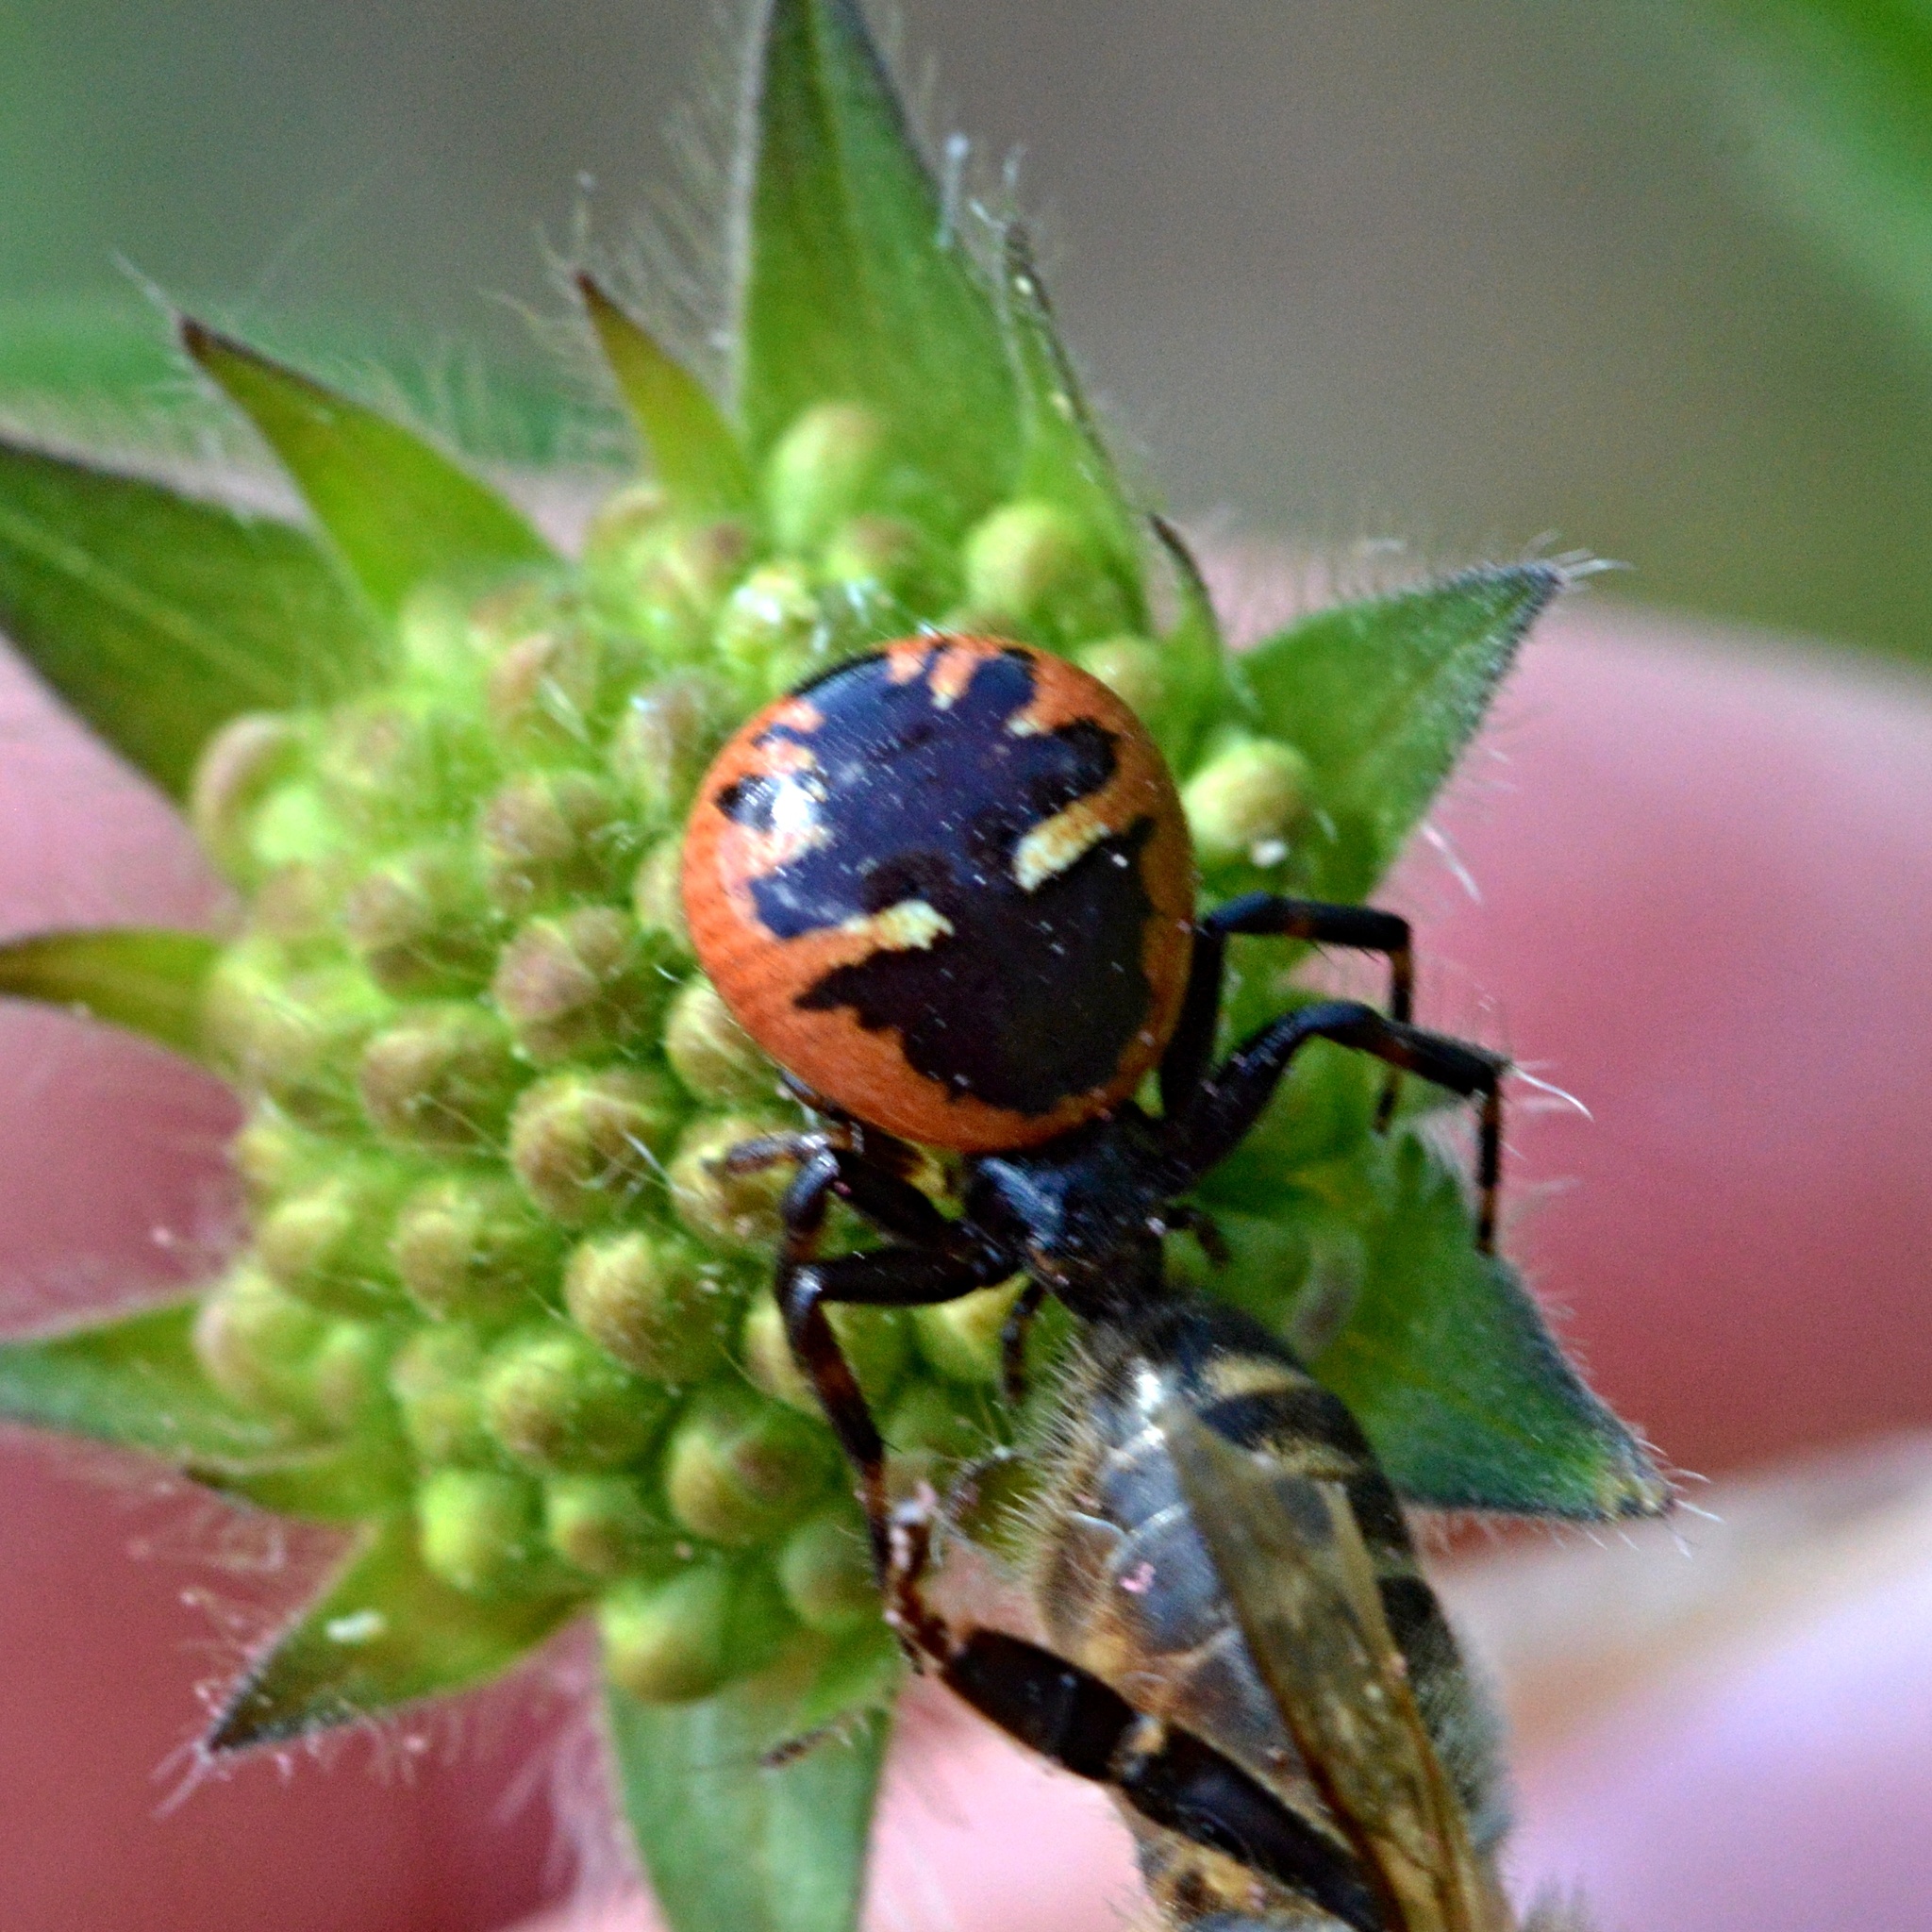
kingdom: Animalia
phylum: Arthropoda
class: Arachnida
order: Araneae
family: Thomisidae
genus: Synema
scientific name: Synema globosum
